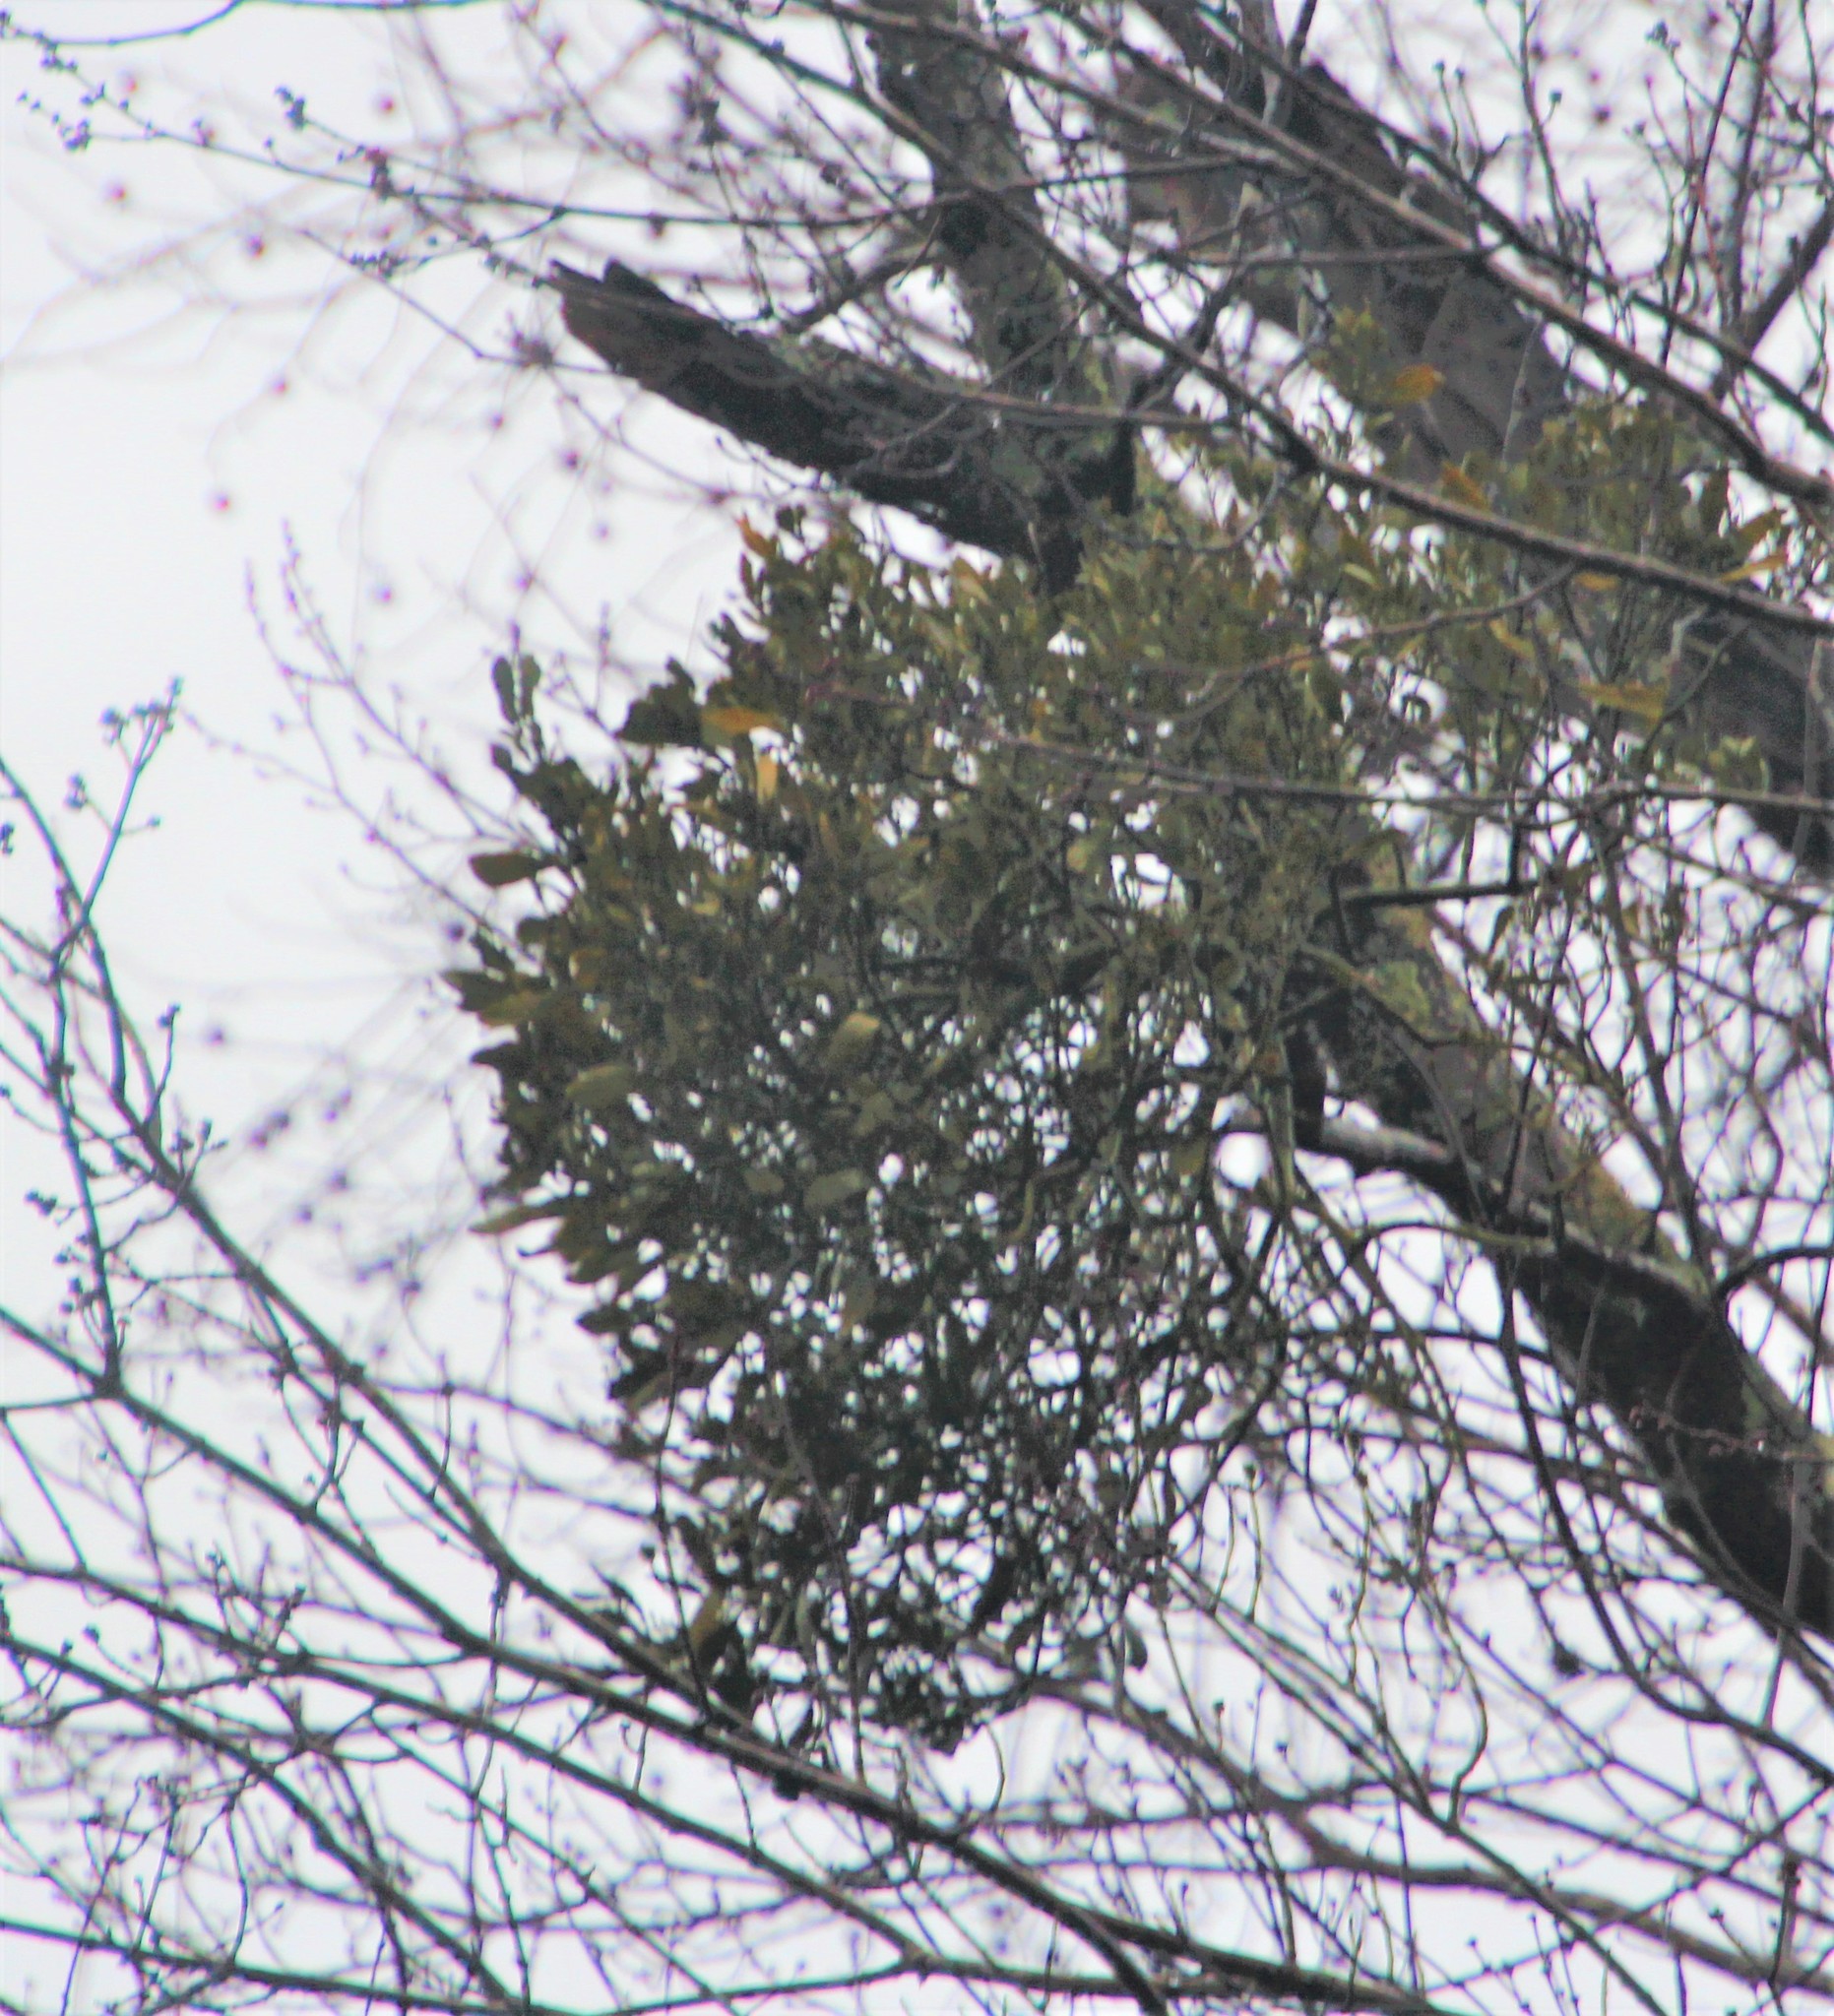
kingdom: Plantae
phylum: Tracheophyta
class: Magnoliopsida
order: Santalales
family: Viscaceae
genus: Phoradendron
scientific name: Phoradendron leucarpum
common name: Pacific mistletoe
